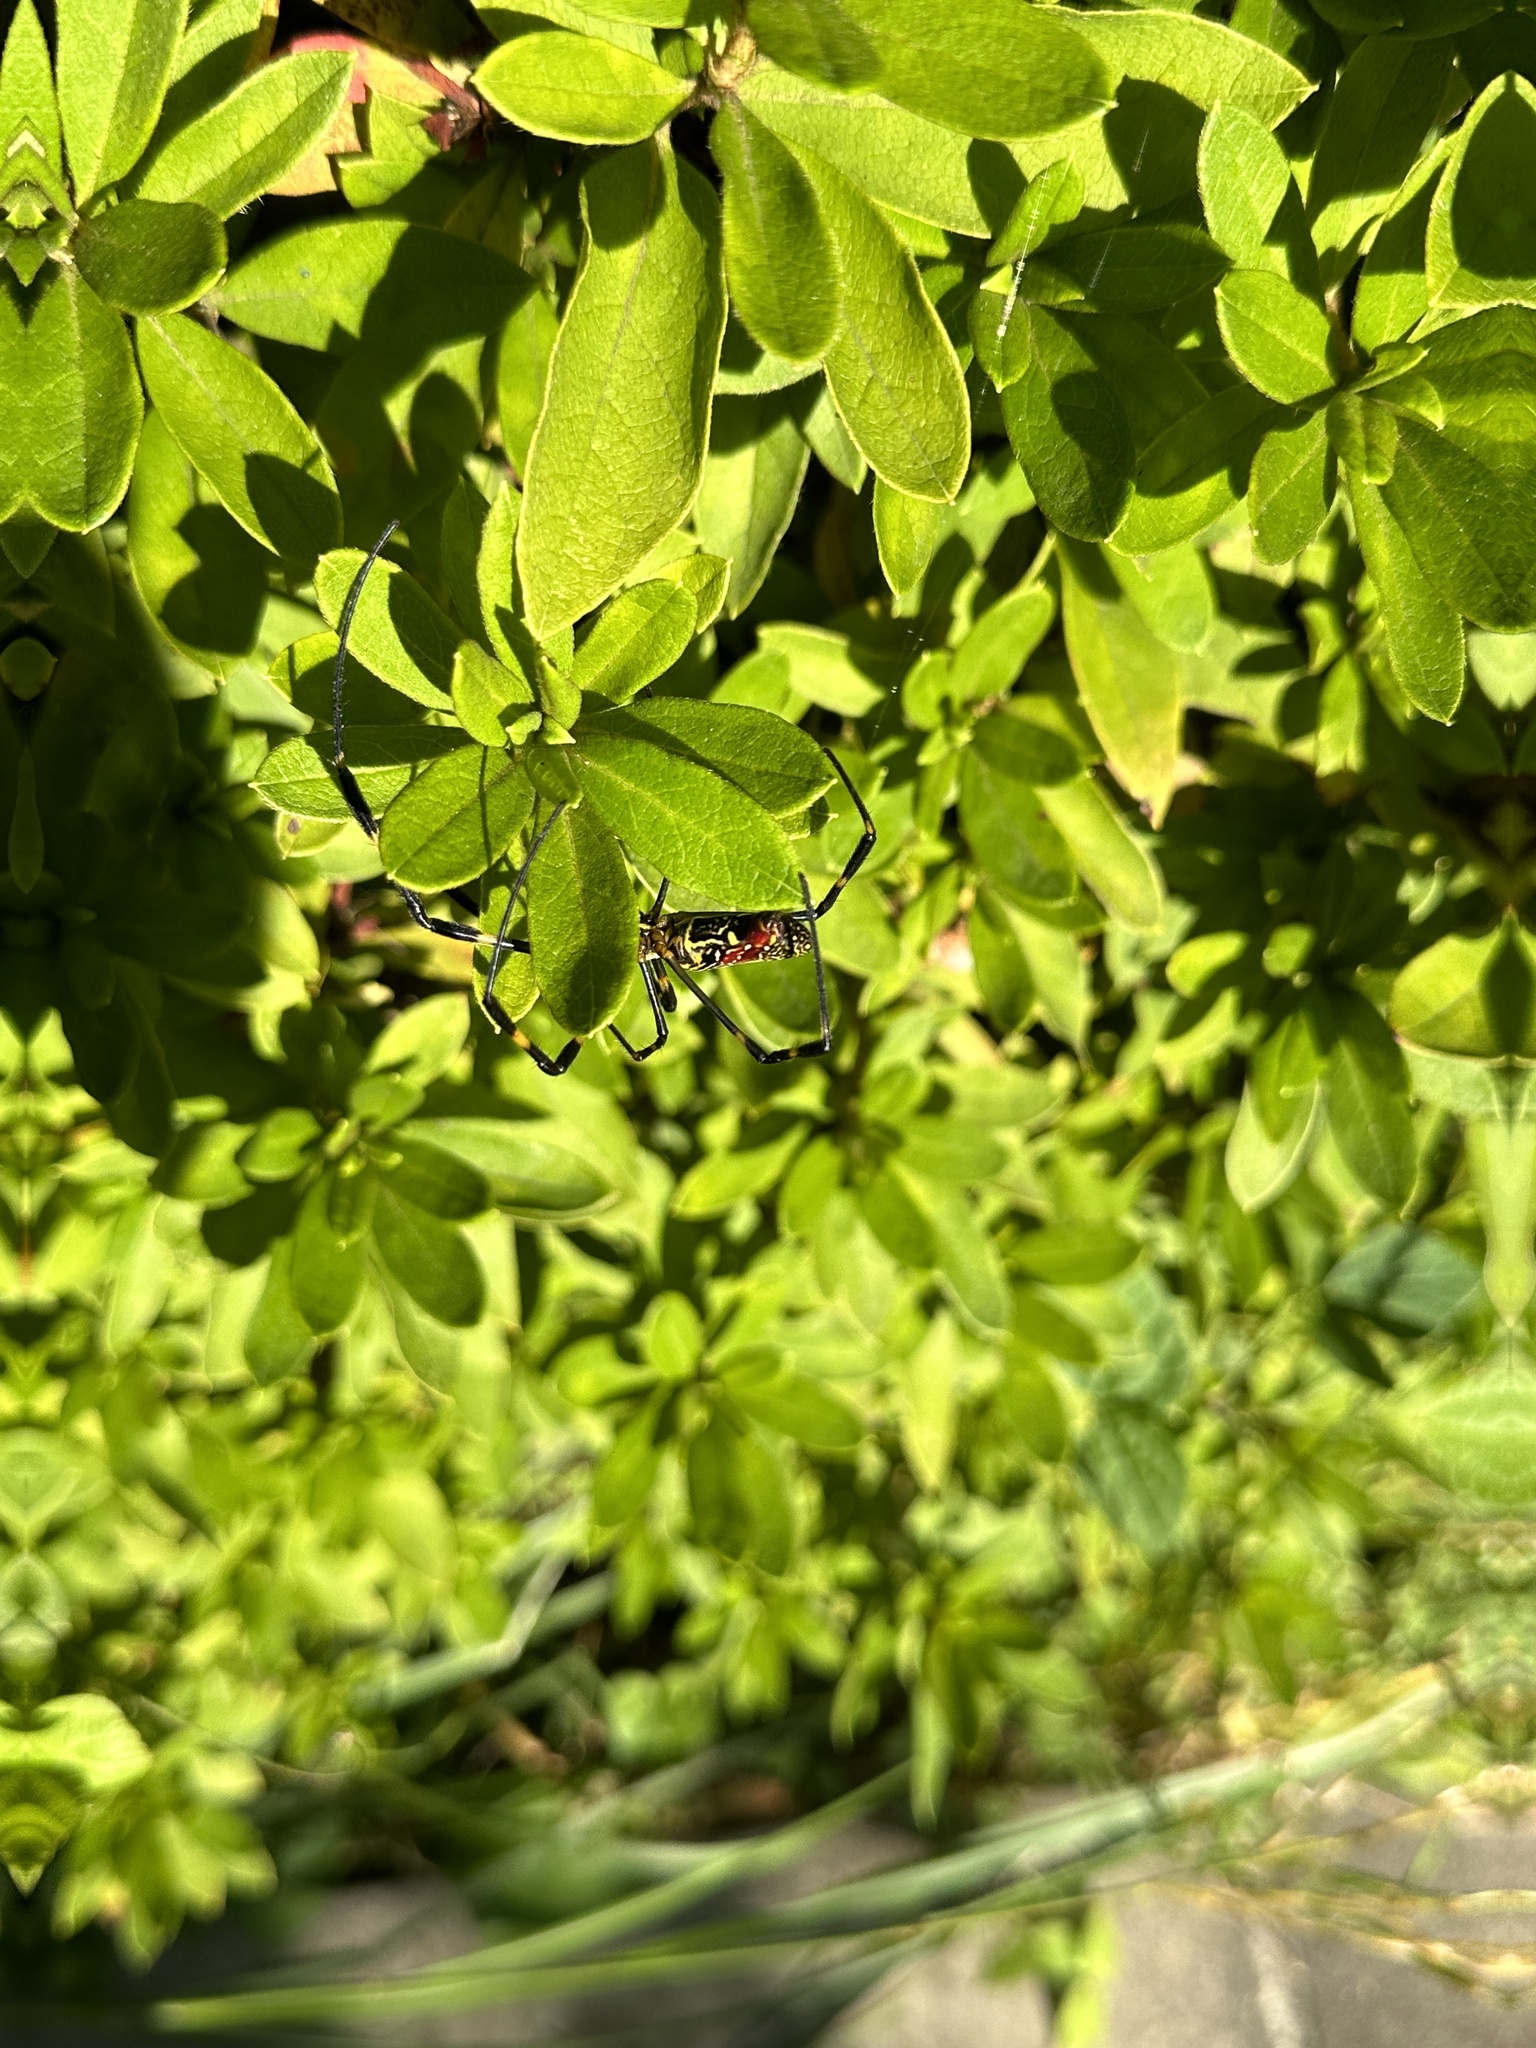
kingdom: Animalia
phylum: Arthropoda
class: Arachnida
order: Araneae
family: Araneidae
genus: Trichonephila
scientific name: Trichonephila clavata
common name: Jorō spider
